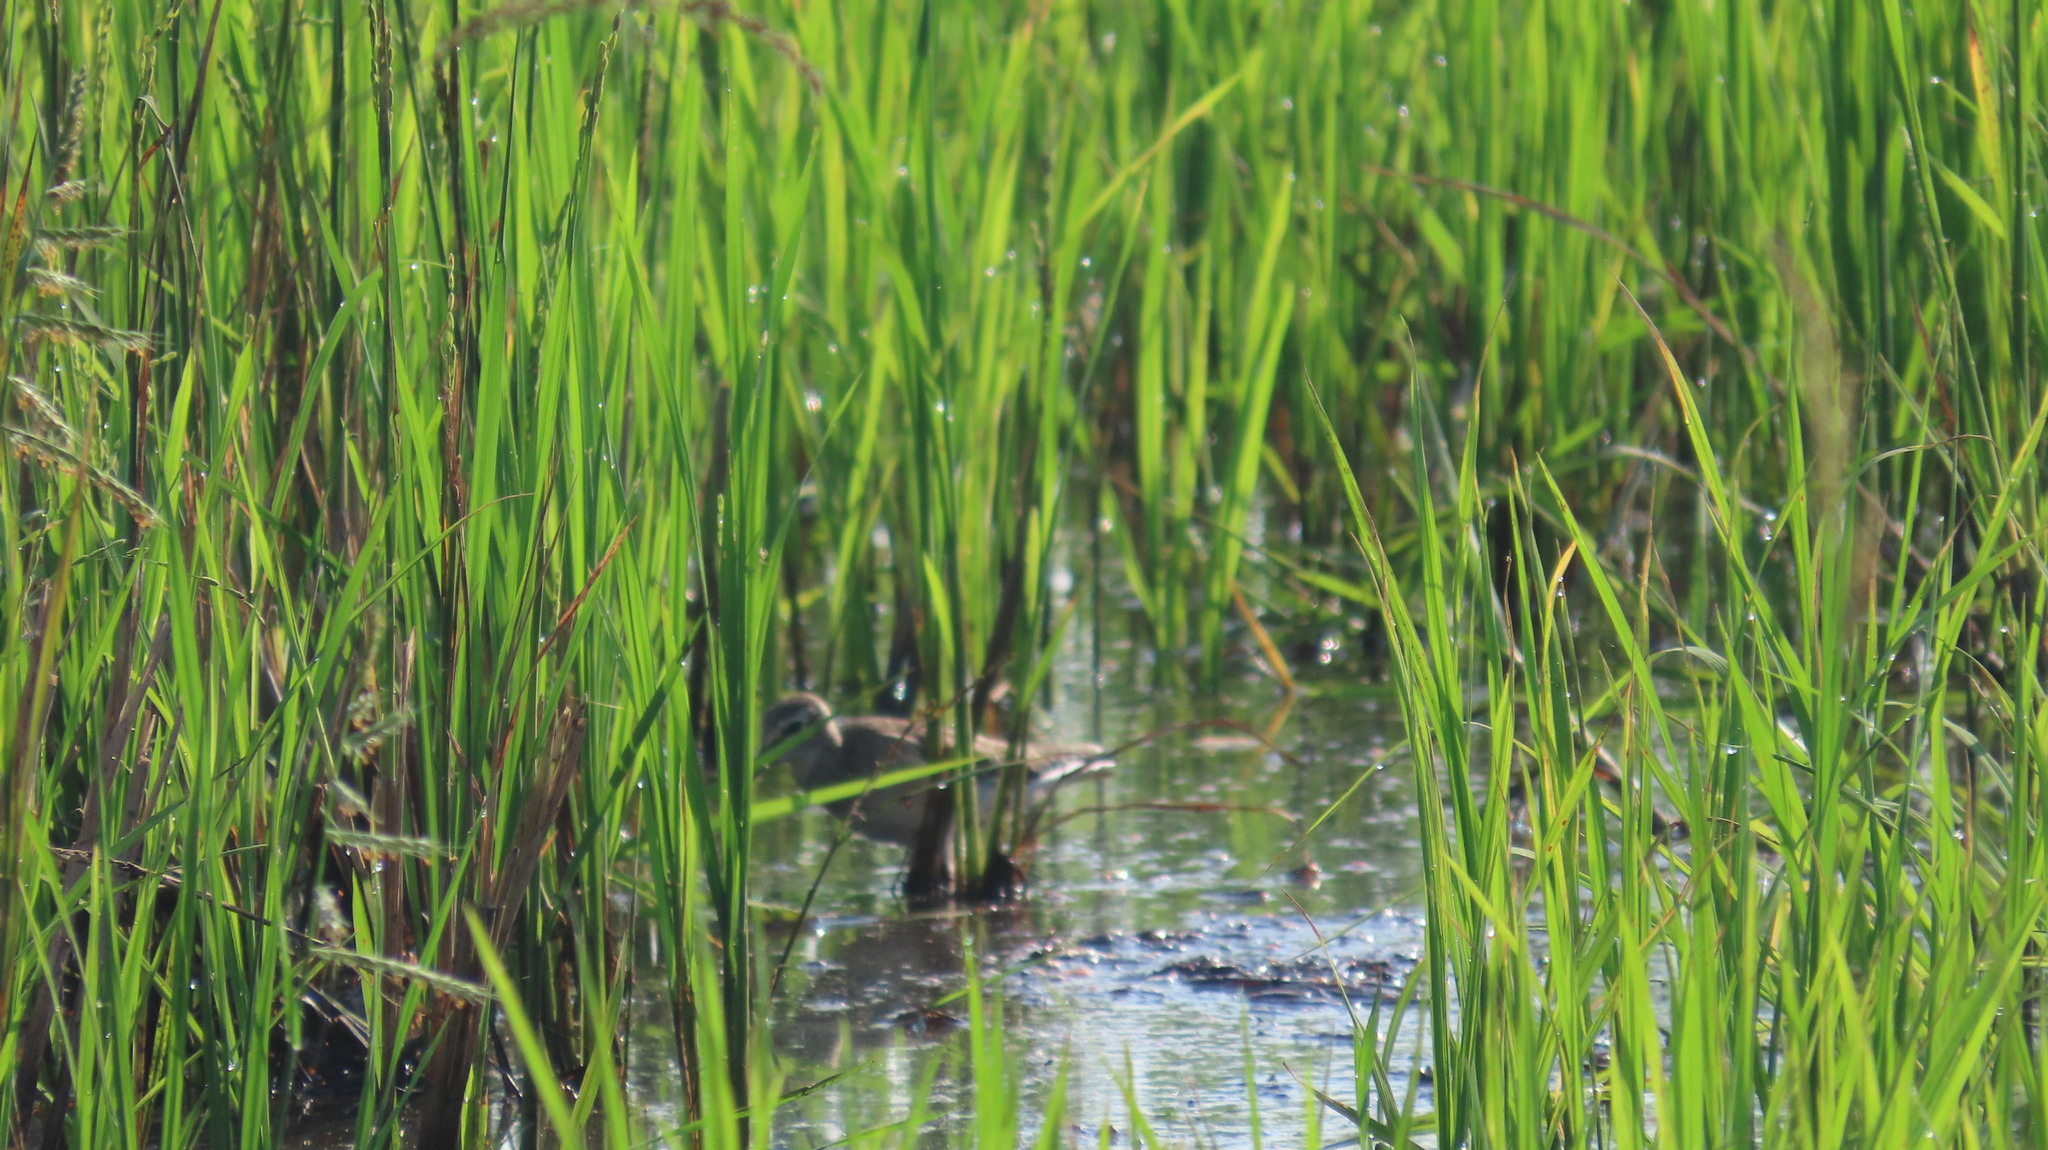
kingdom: Animalia
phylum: Chordata
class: Aves
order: Charadriiformes
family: Scolopacidae
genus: Tringa
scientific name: Tringa glareola
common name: Wood sandpiper
